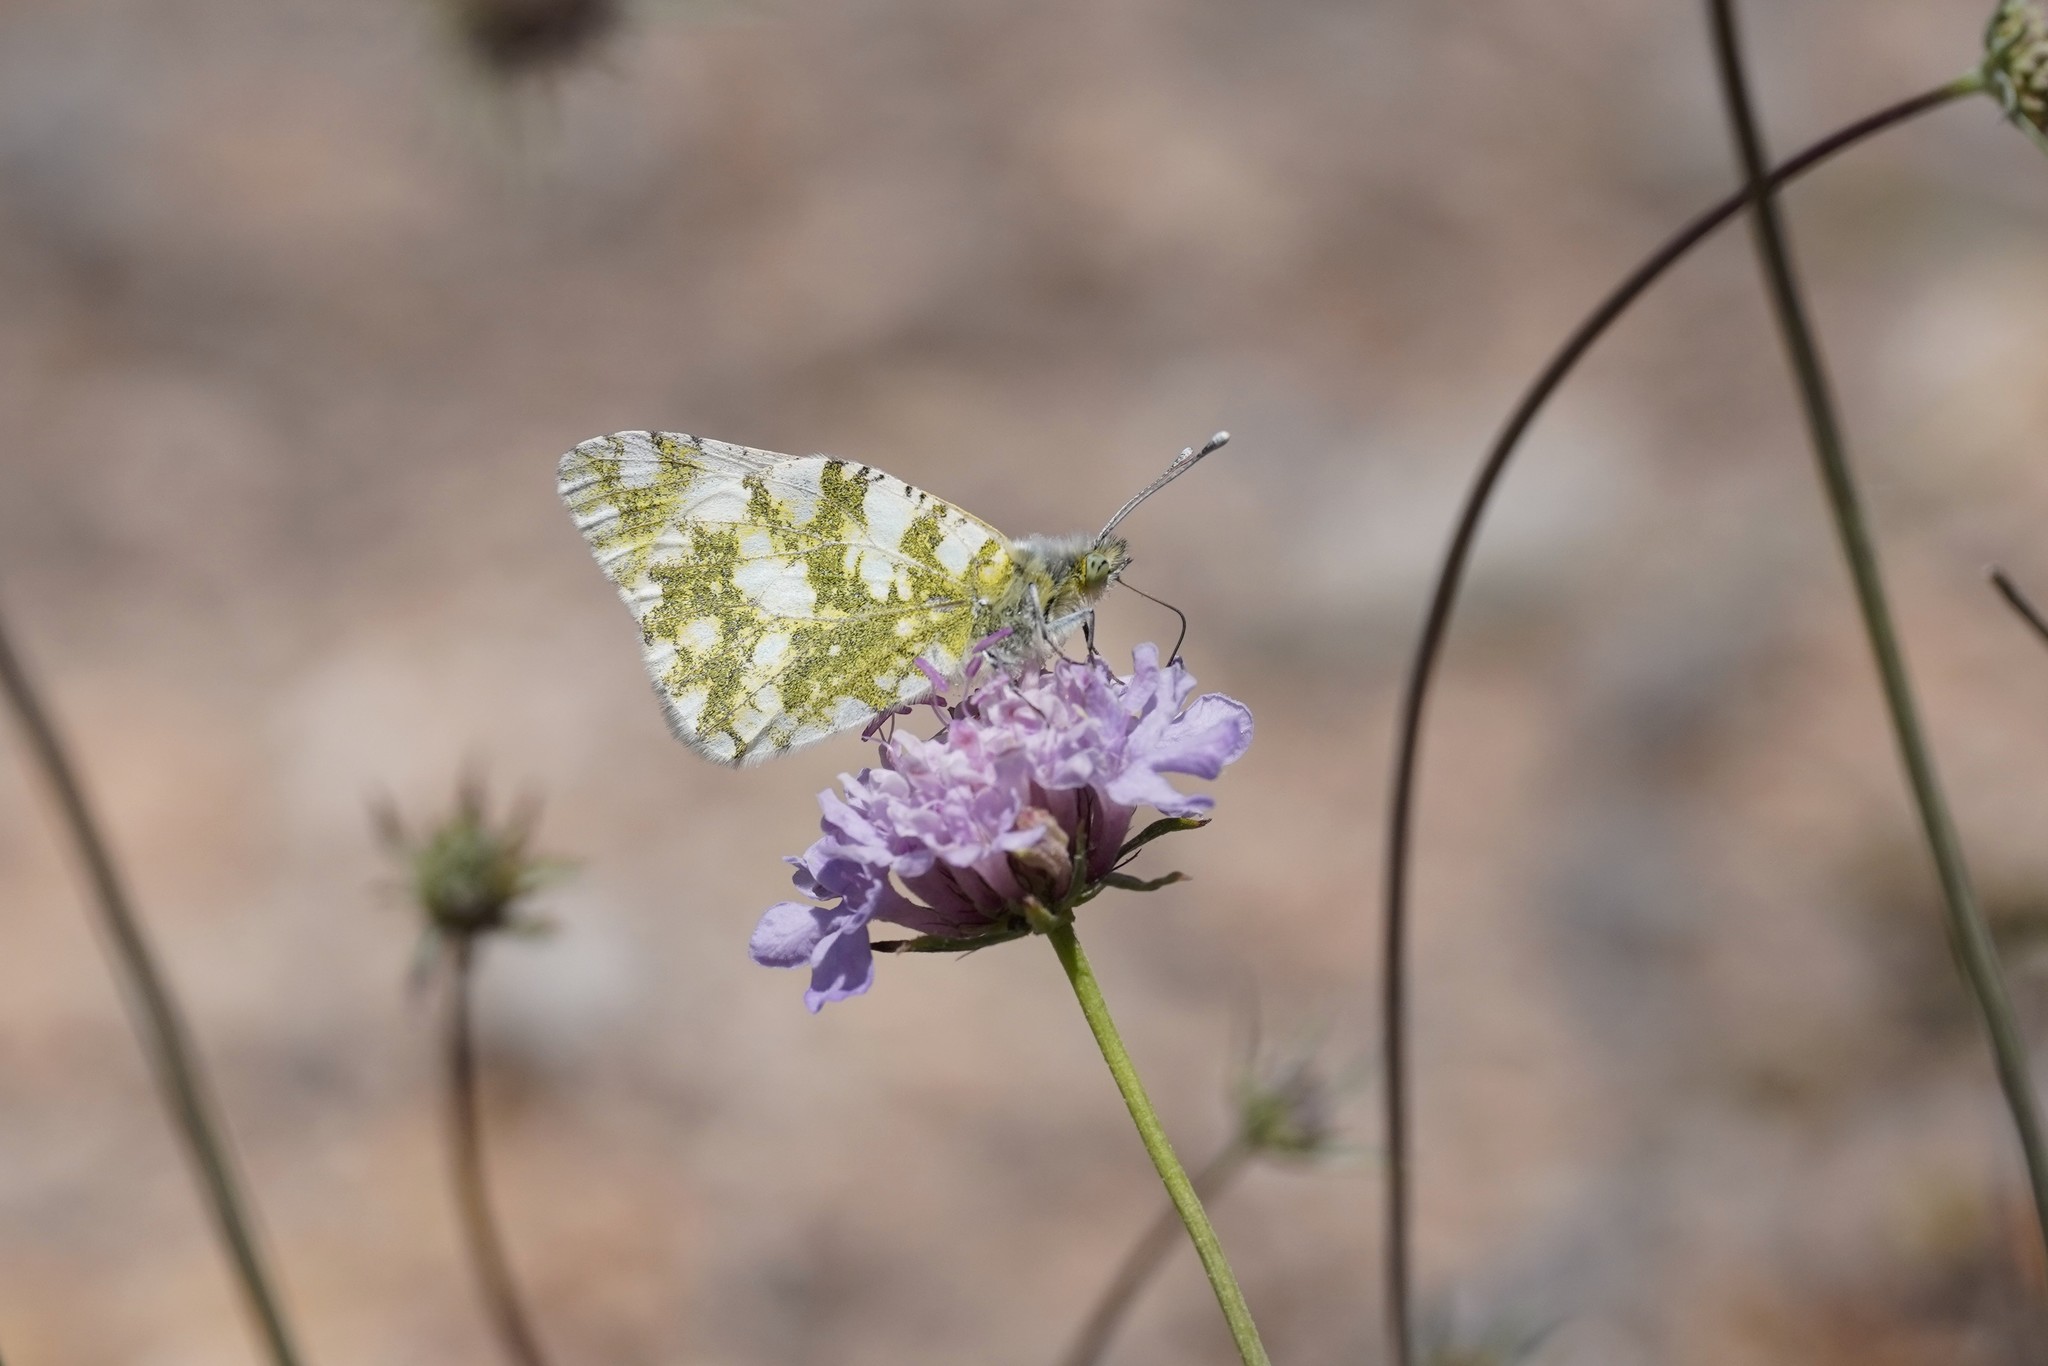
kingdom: Animalia
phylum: Arthropoda
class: Insecta
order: Lepidoptera
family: Pieridae
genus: Euchloe
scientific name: Euchloe crameri
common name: Western dappled white
